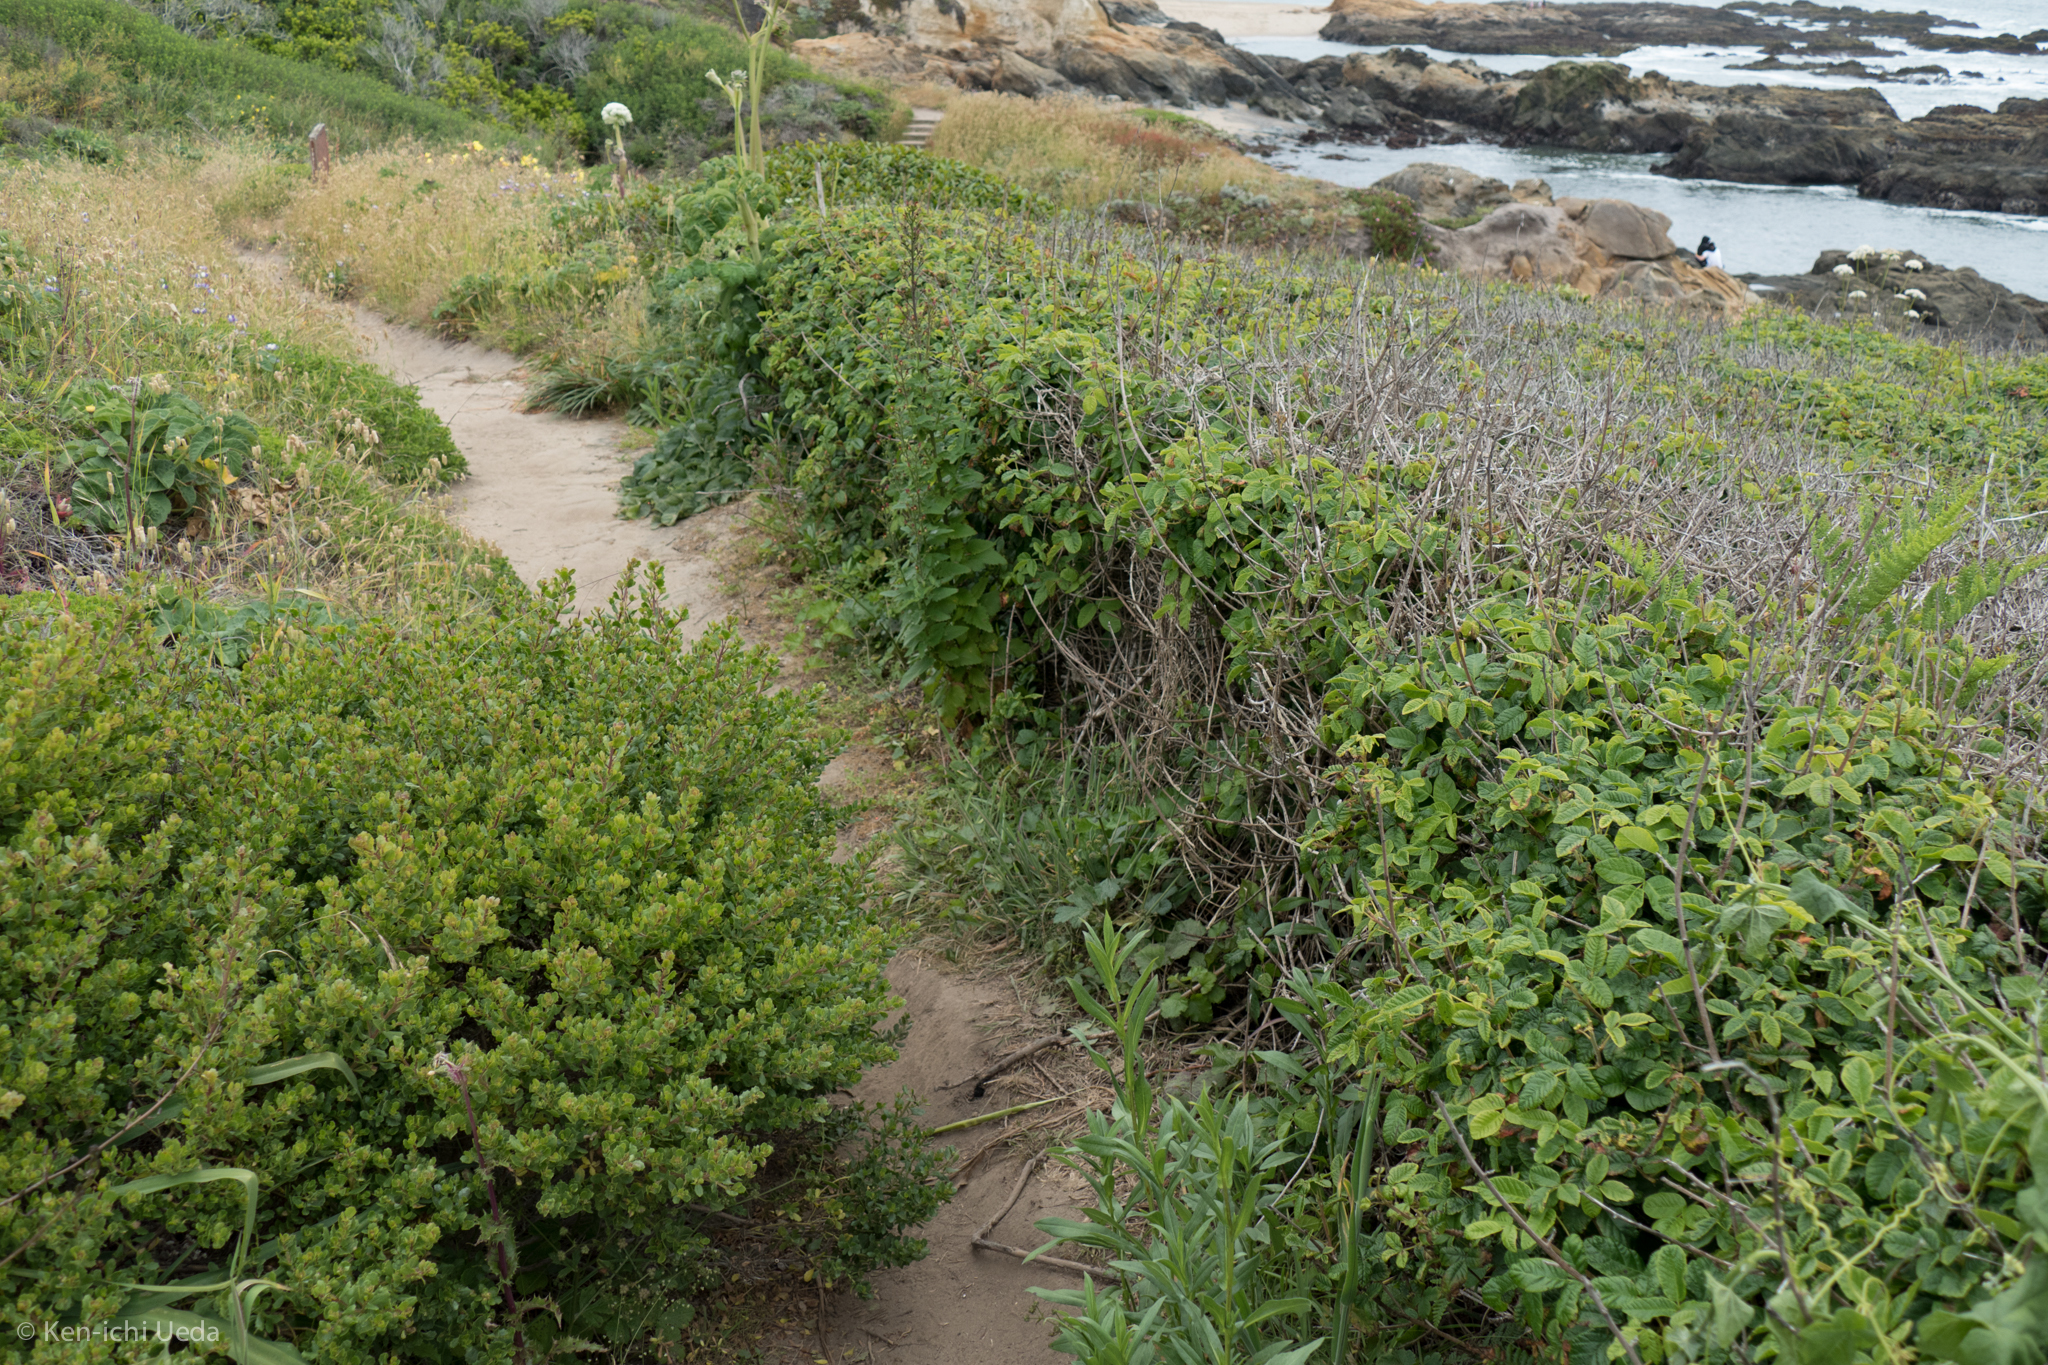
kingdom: Plantae
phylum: Tracheophyta
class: Magnoliopsida
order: Sapindales
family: Anacardiaceae
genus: Toxicodendron
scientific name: Toxicodendron diversilobum
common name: Pacific poison-oak
